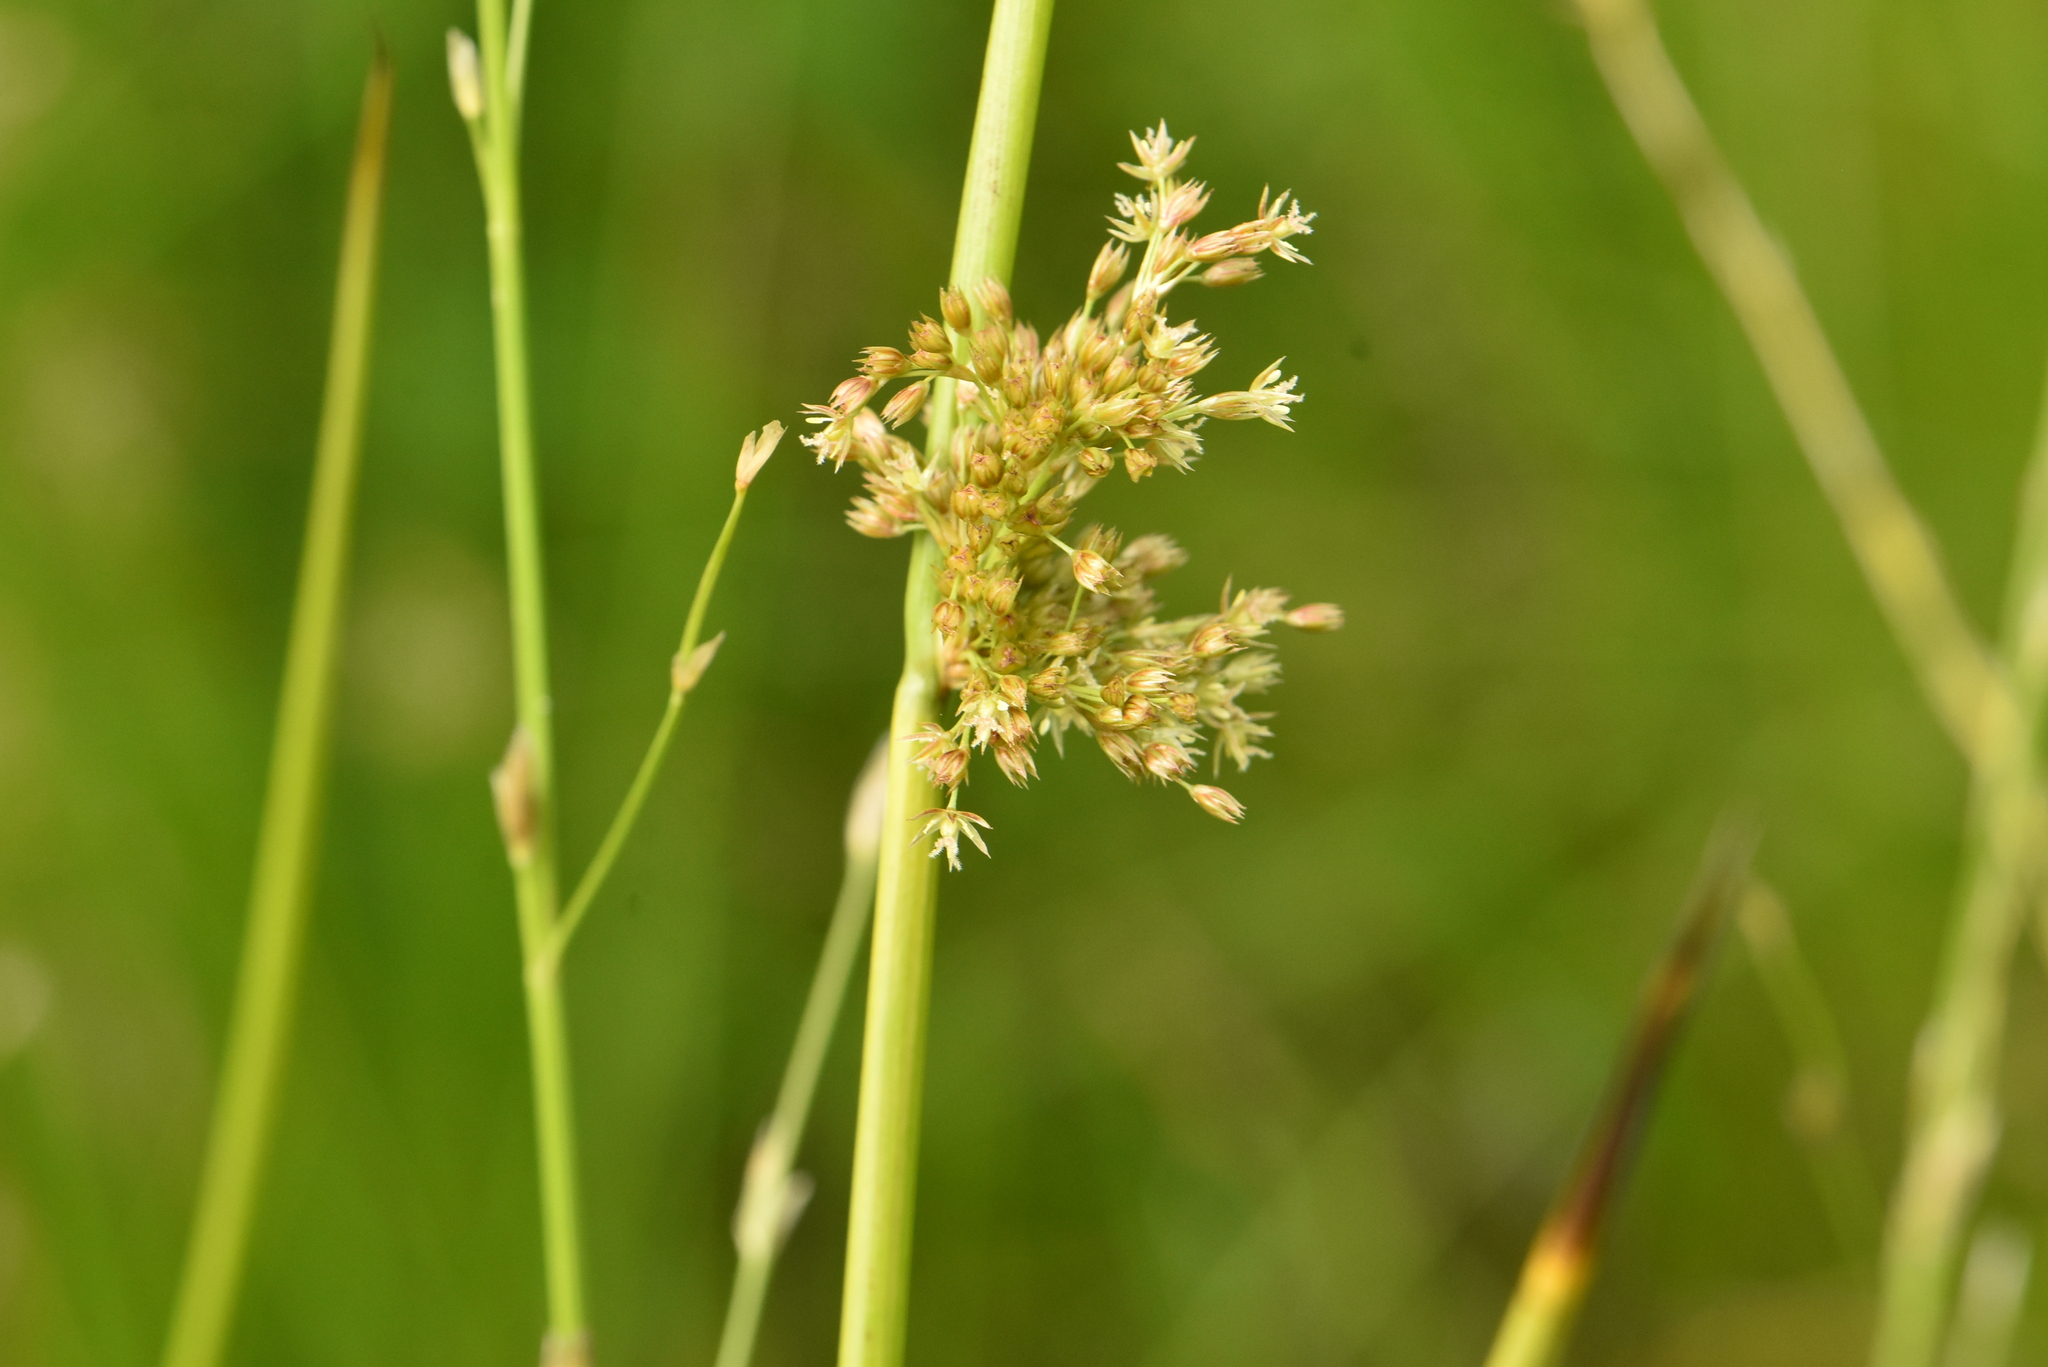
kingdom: Plantae
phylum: Tracheophyta
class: Liliopsida
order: Poales
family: Juncaceae
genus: Juncus
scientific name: Juncus effusus
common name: Soft rush
